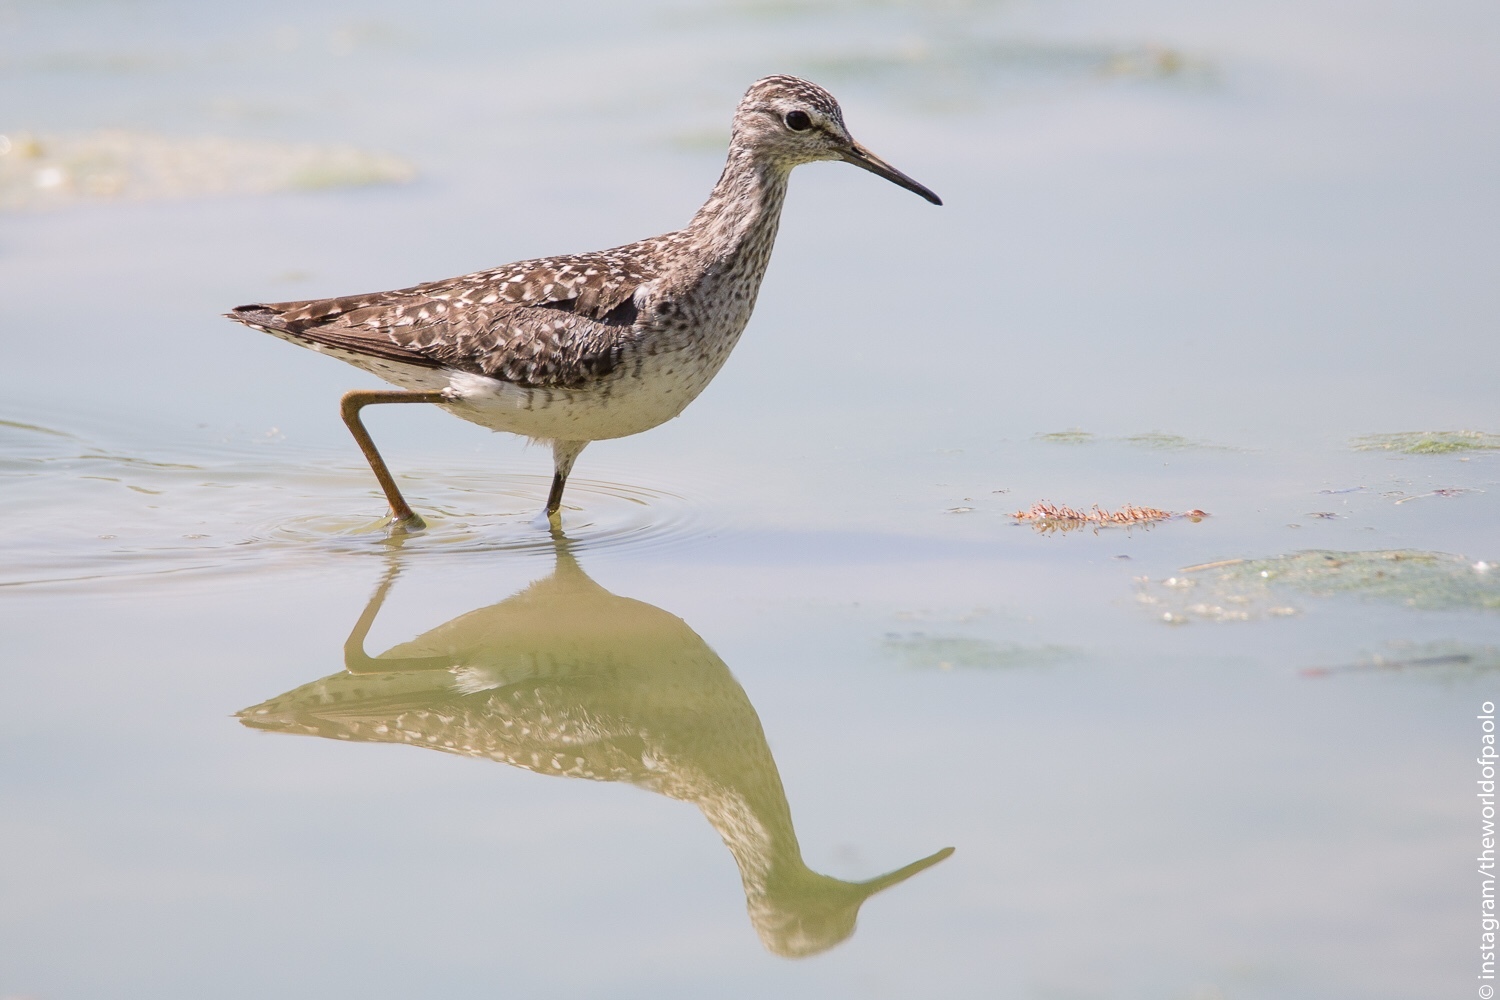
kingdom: Animalia
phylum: Chordata
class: Aves
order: Charadriiformes
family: Scolopacidae
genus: Tringa
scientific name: Tringa glareola
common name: Wood sandpiper
